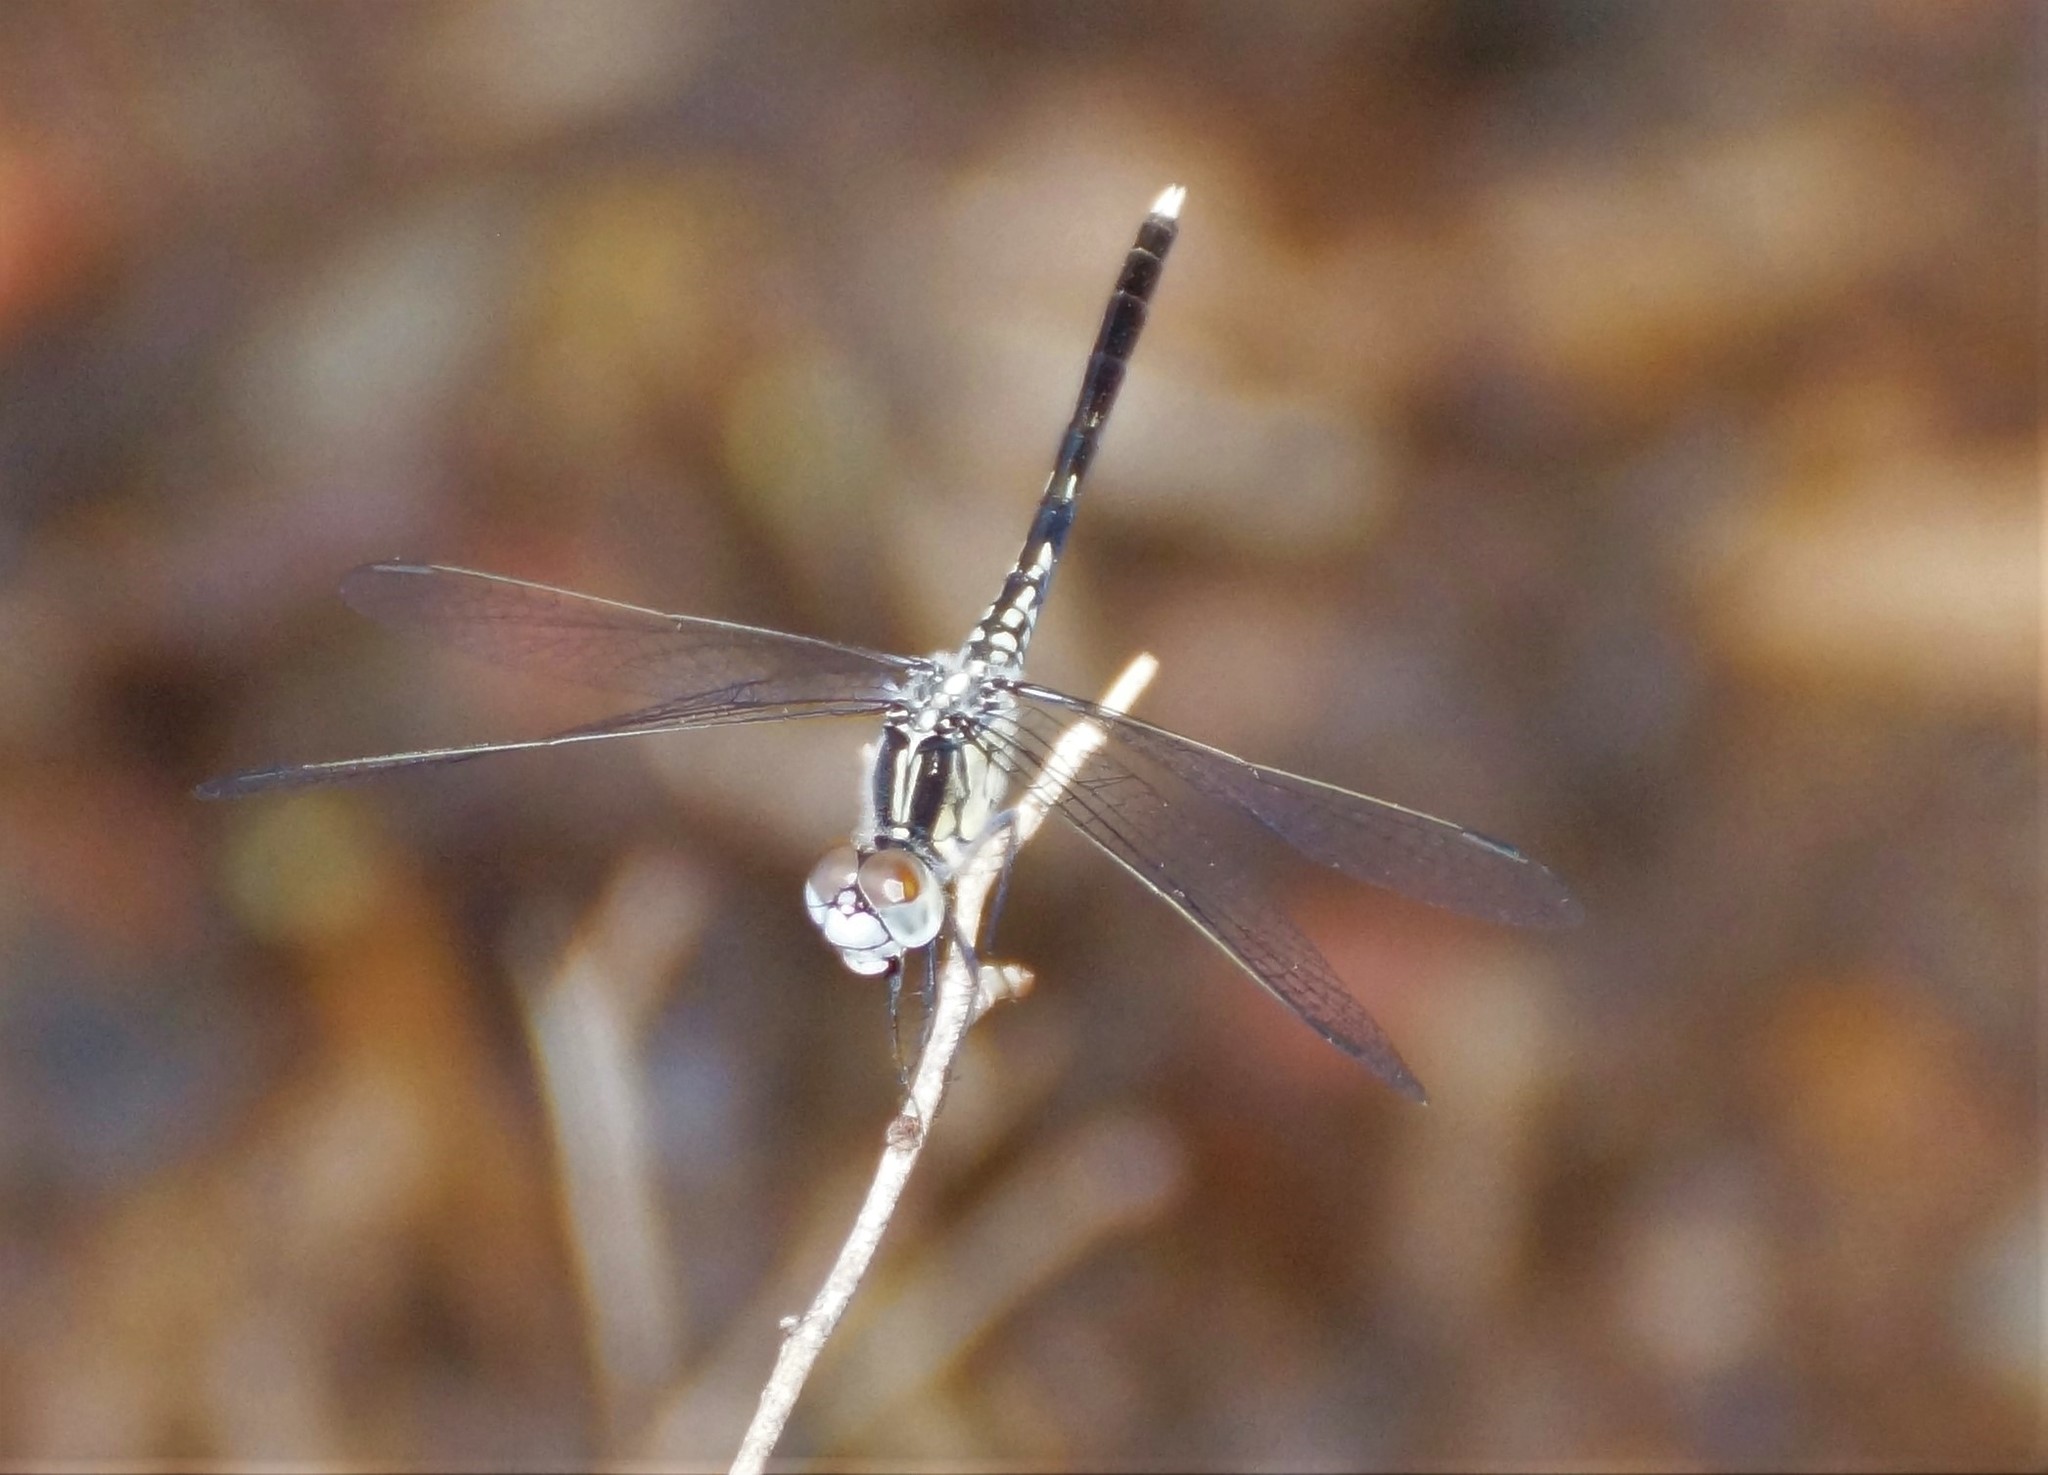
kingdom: Animalia
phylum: Arthropoda
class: Insecta
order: Odonata
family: Libellulidae
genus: Diplacodes
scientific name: Diplacodes trivialis
